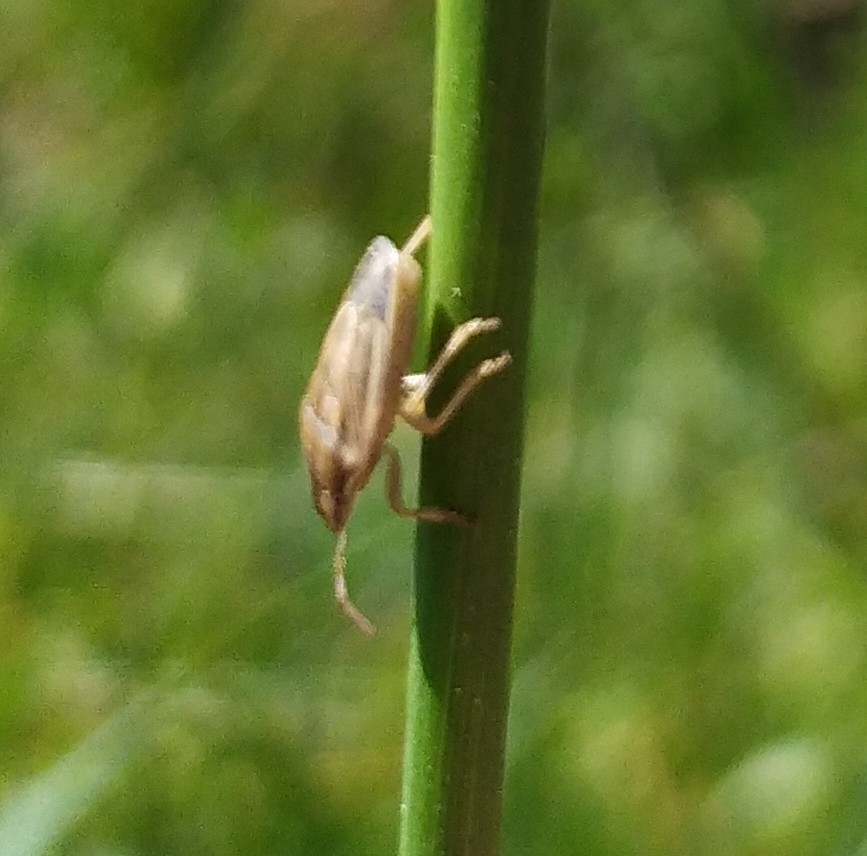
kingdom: Animalia
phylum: Arthropoda
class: Insecta
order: Hemiptera
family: Pentatomidae
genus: Aelia
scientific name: Aelia acuminata
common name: Bishop's mitre
